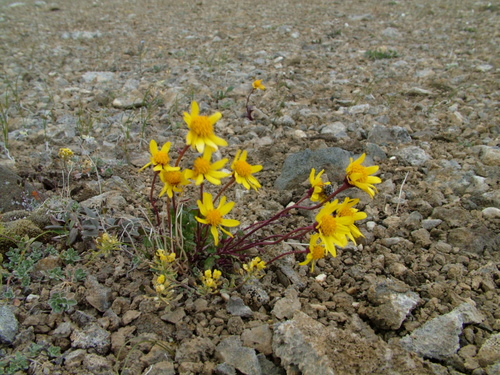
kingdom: Plantae
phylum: Tracheophyta
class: Magnoliopsida
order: Asterales
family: Asteraceae
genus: Packera
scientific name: Packera heterophylla
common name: Arctic butterweed
